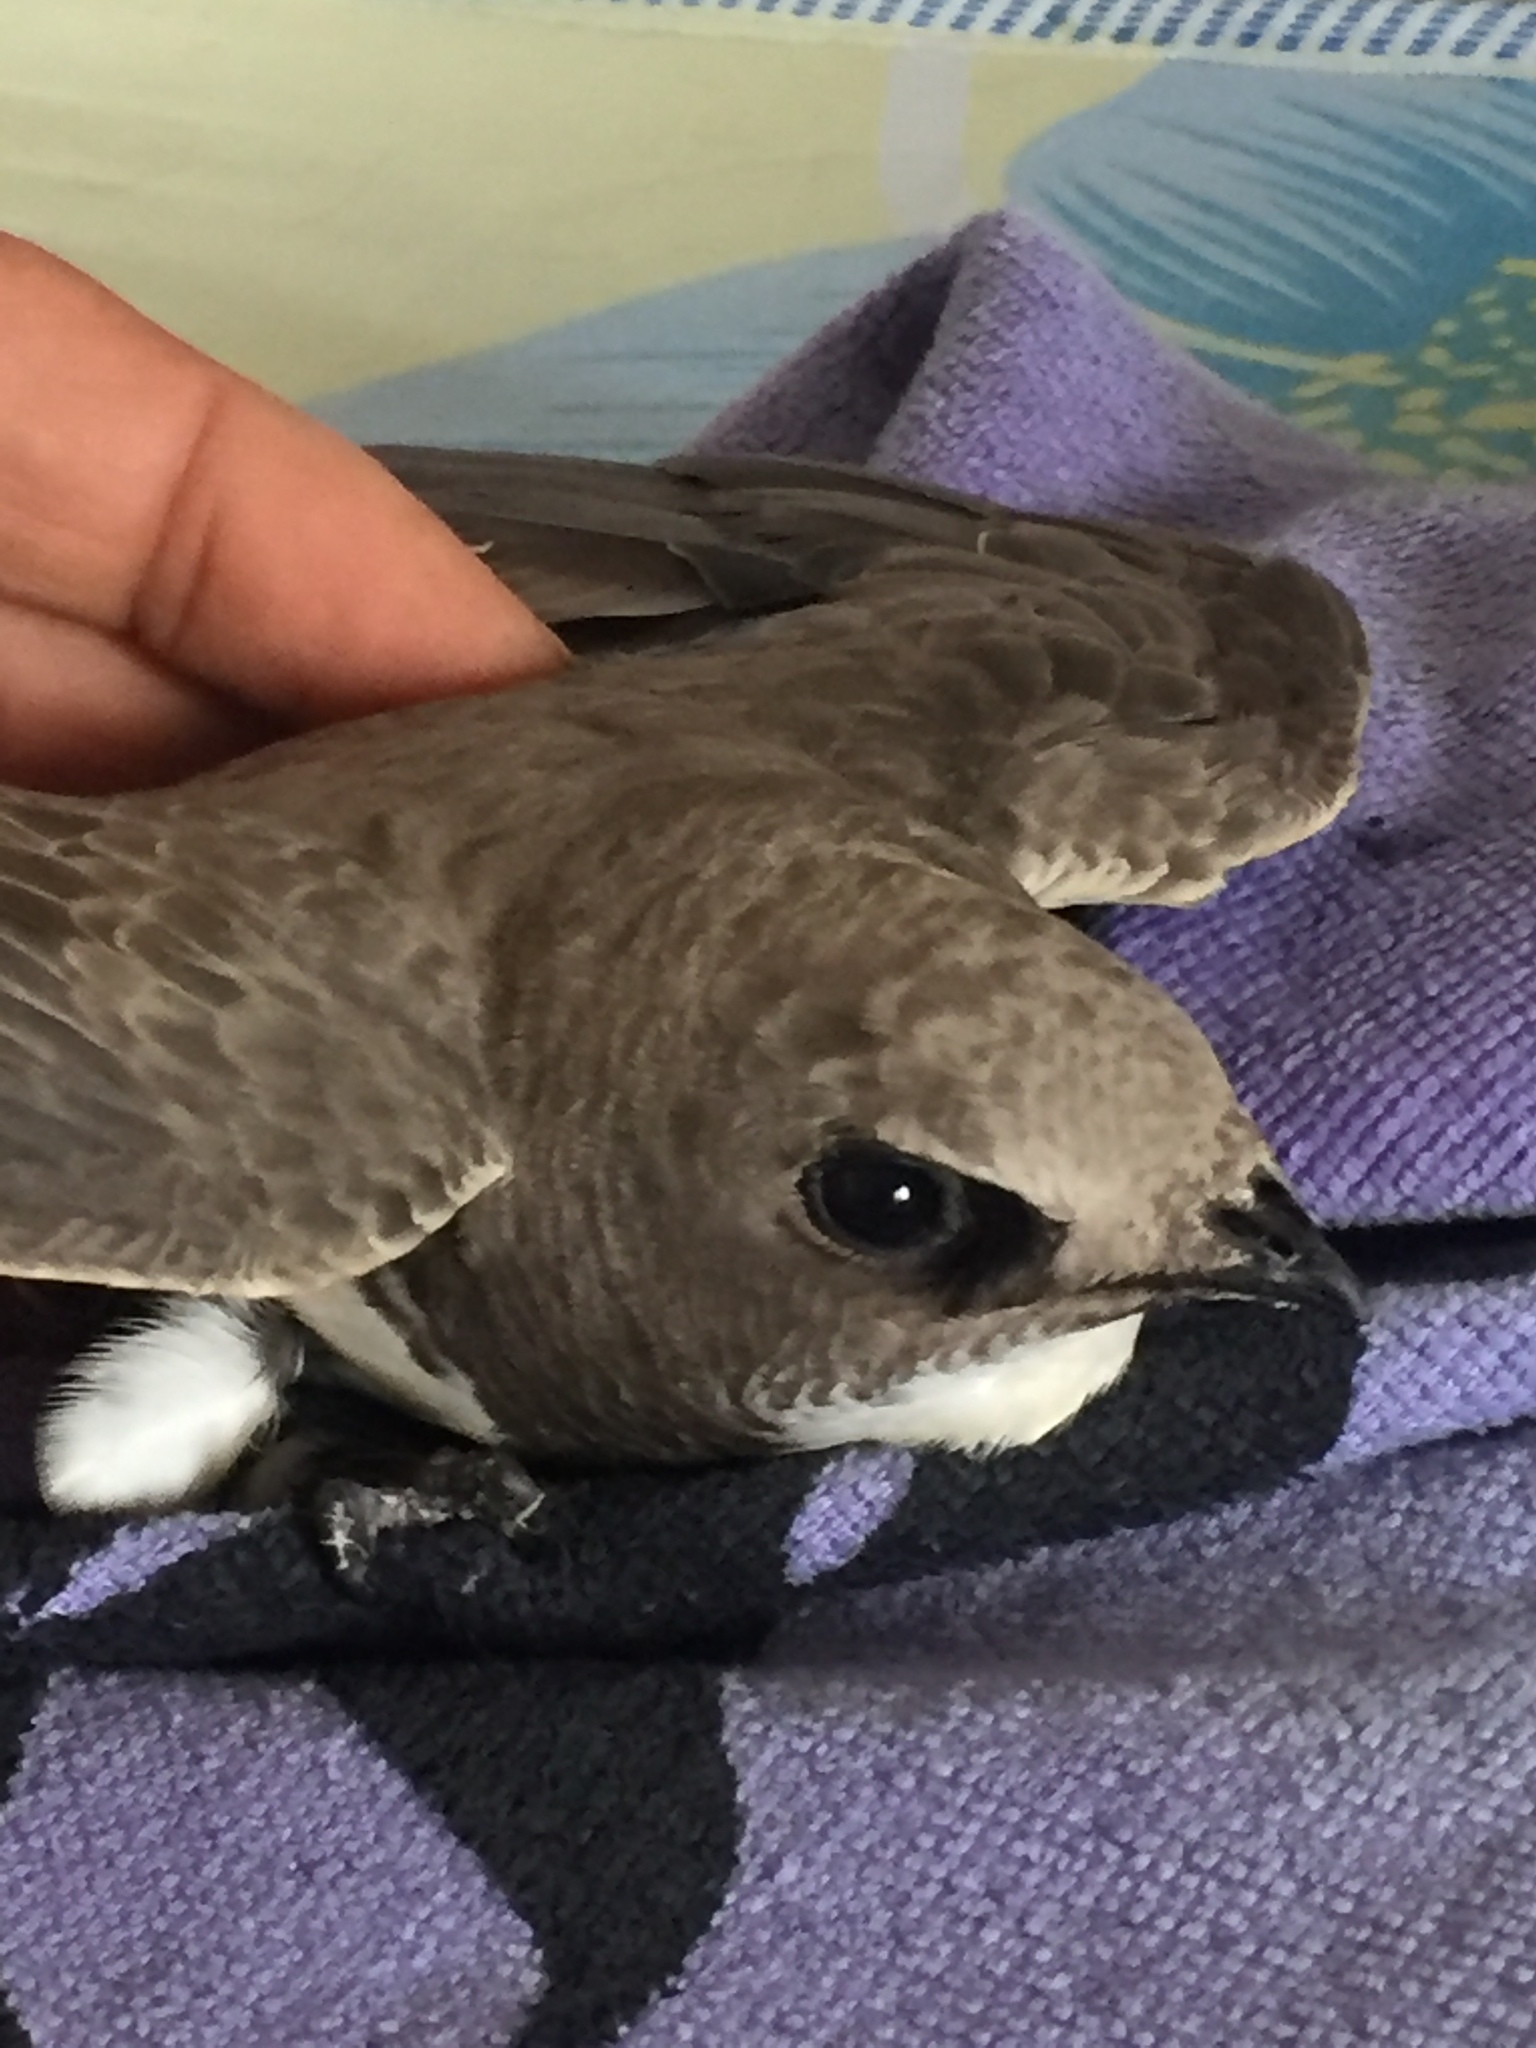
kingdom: Animalia
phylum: Chordata
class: Aves
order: Apodiformes
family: Apodidae
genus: Tachymarptis
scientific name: Tachymarptis melba
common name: Alpine swift
